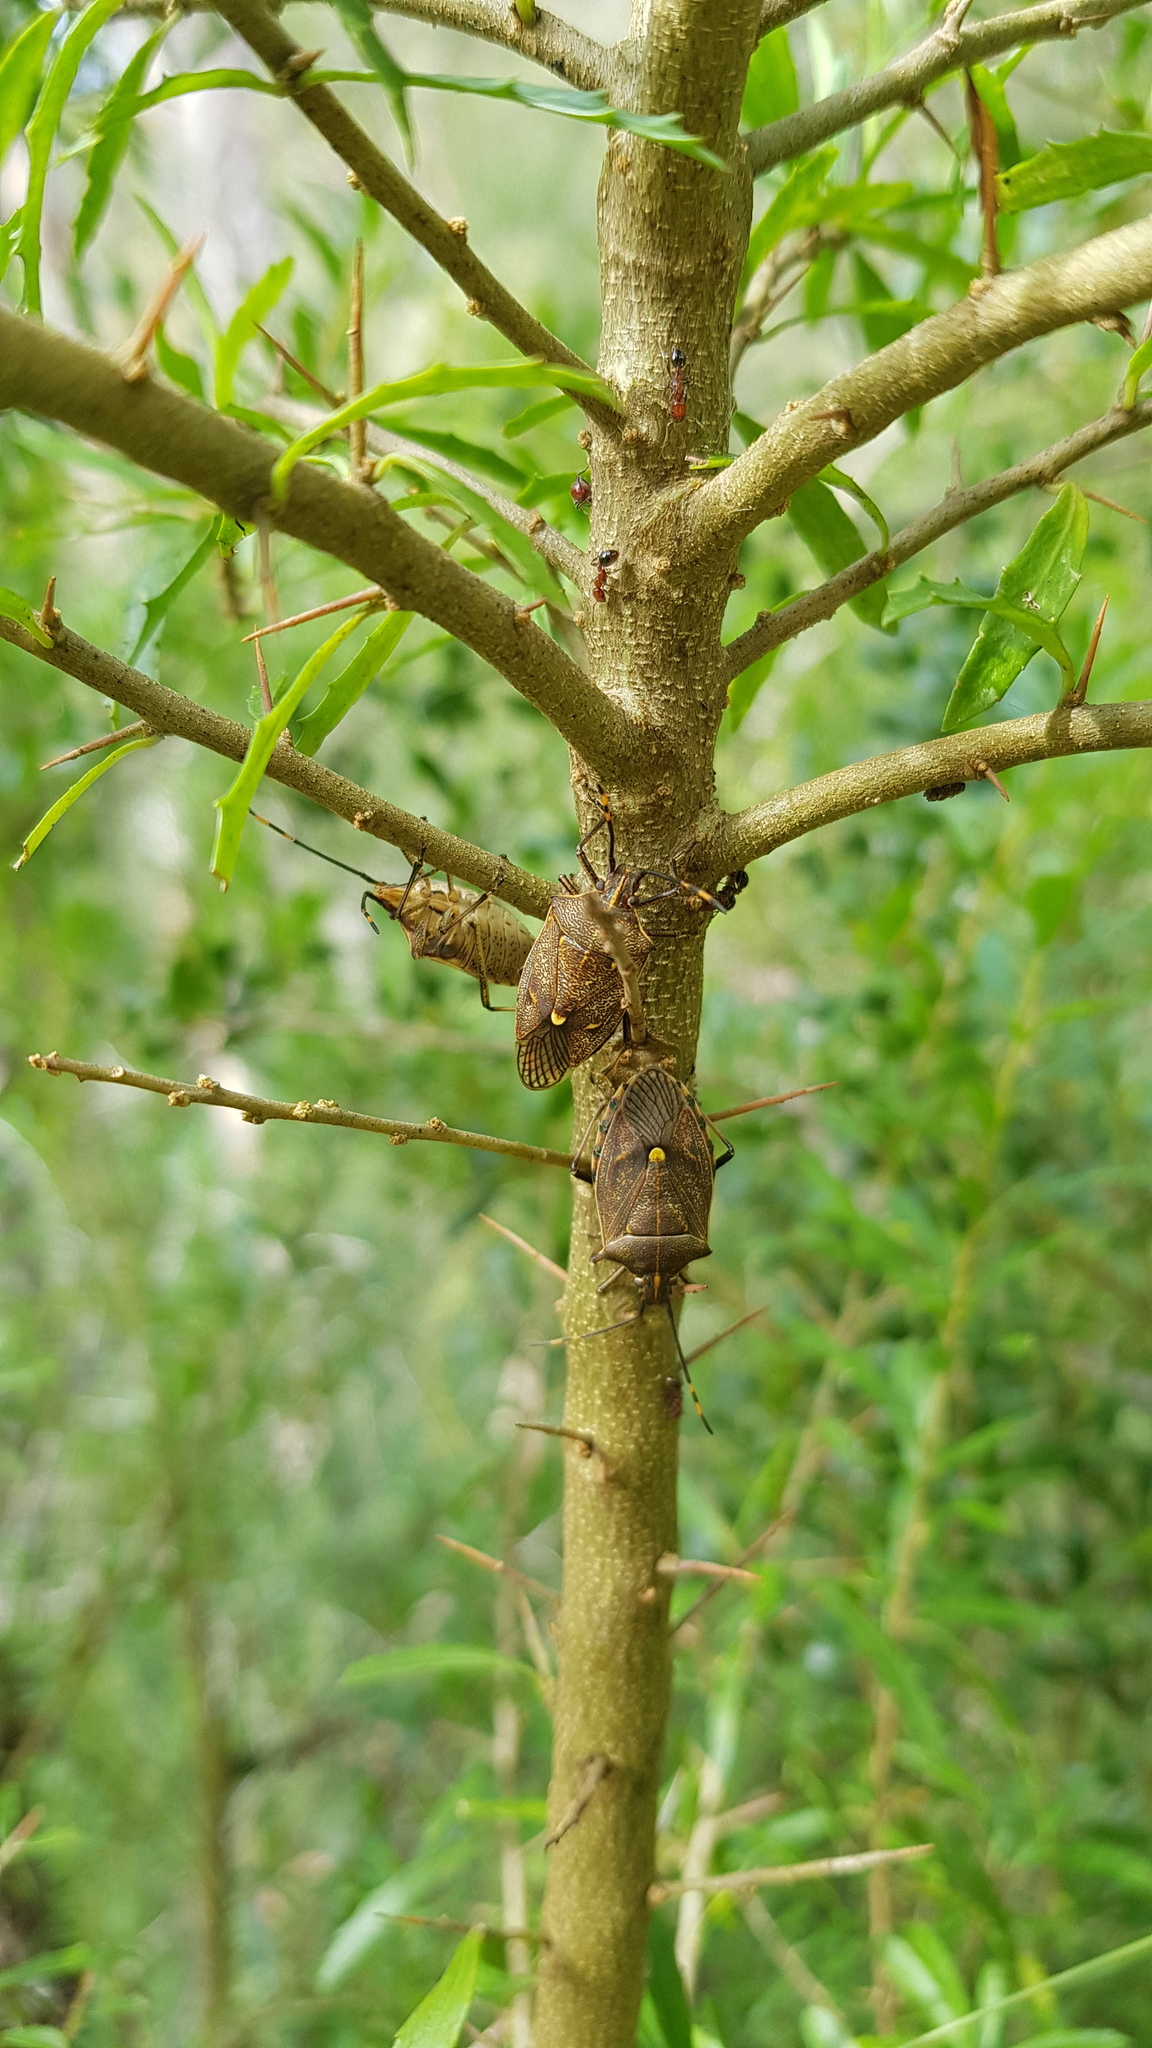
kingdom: Animalia
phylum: Arthropoda
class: Insecta
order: Hemiptera
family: Pentatomidae
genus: Omyta
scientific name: Omyta centrolineata
